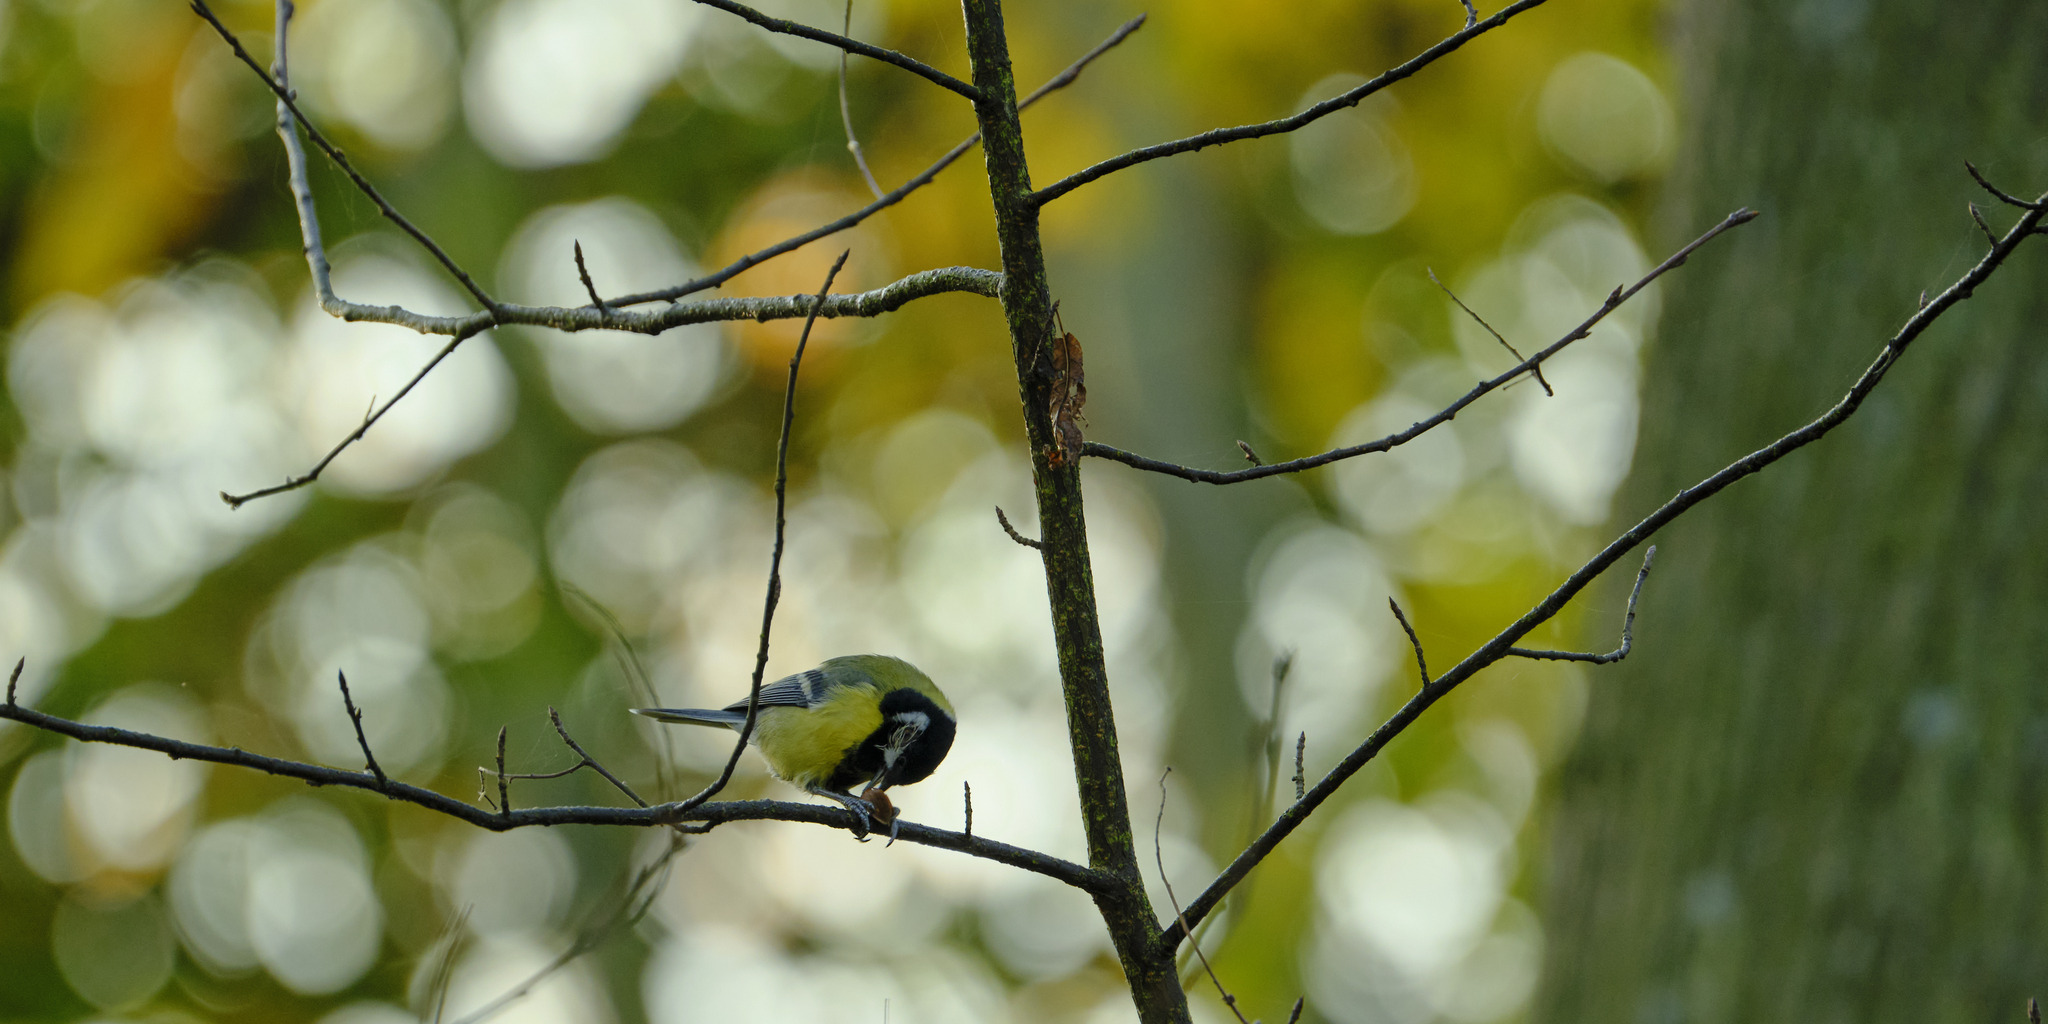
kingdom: Animalia
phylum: Chordata
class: Aves
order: Passeriformes
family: Paridae
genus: Parus
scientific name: Parus major
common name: Great tit
